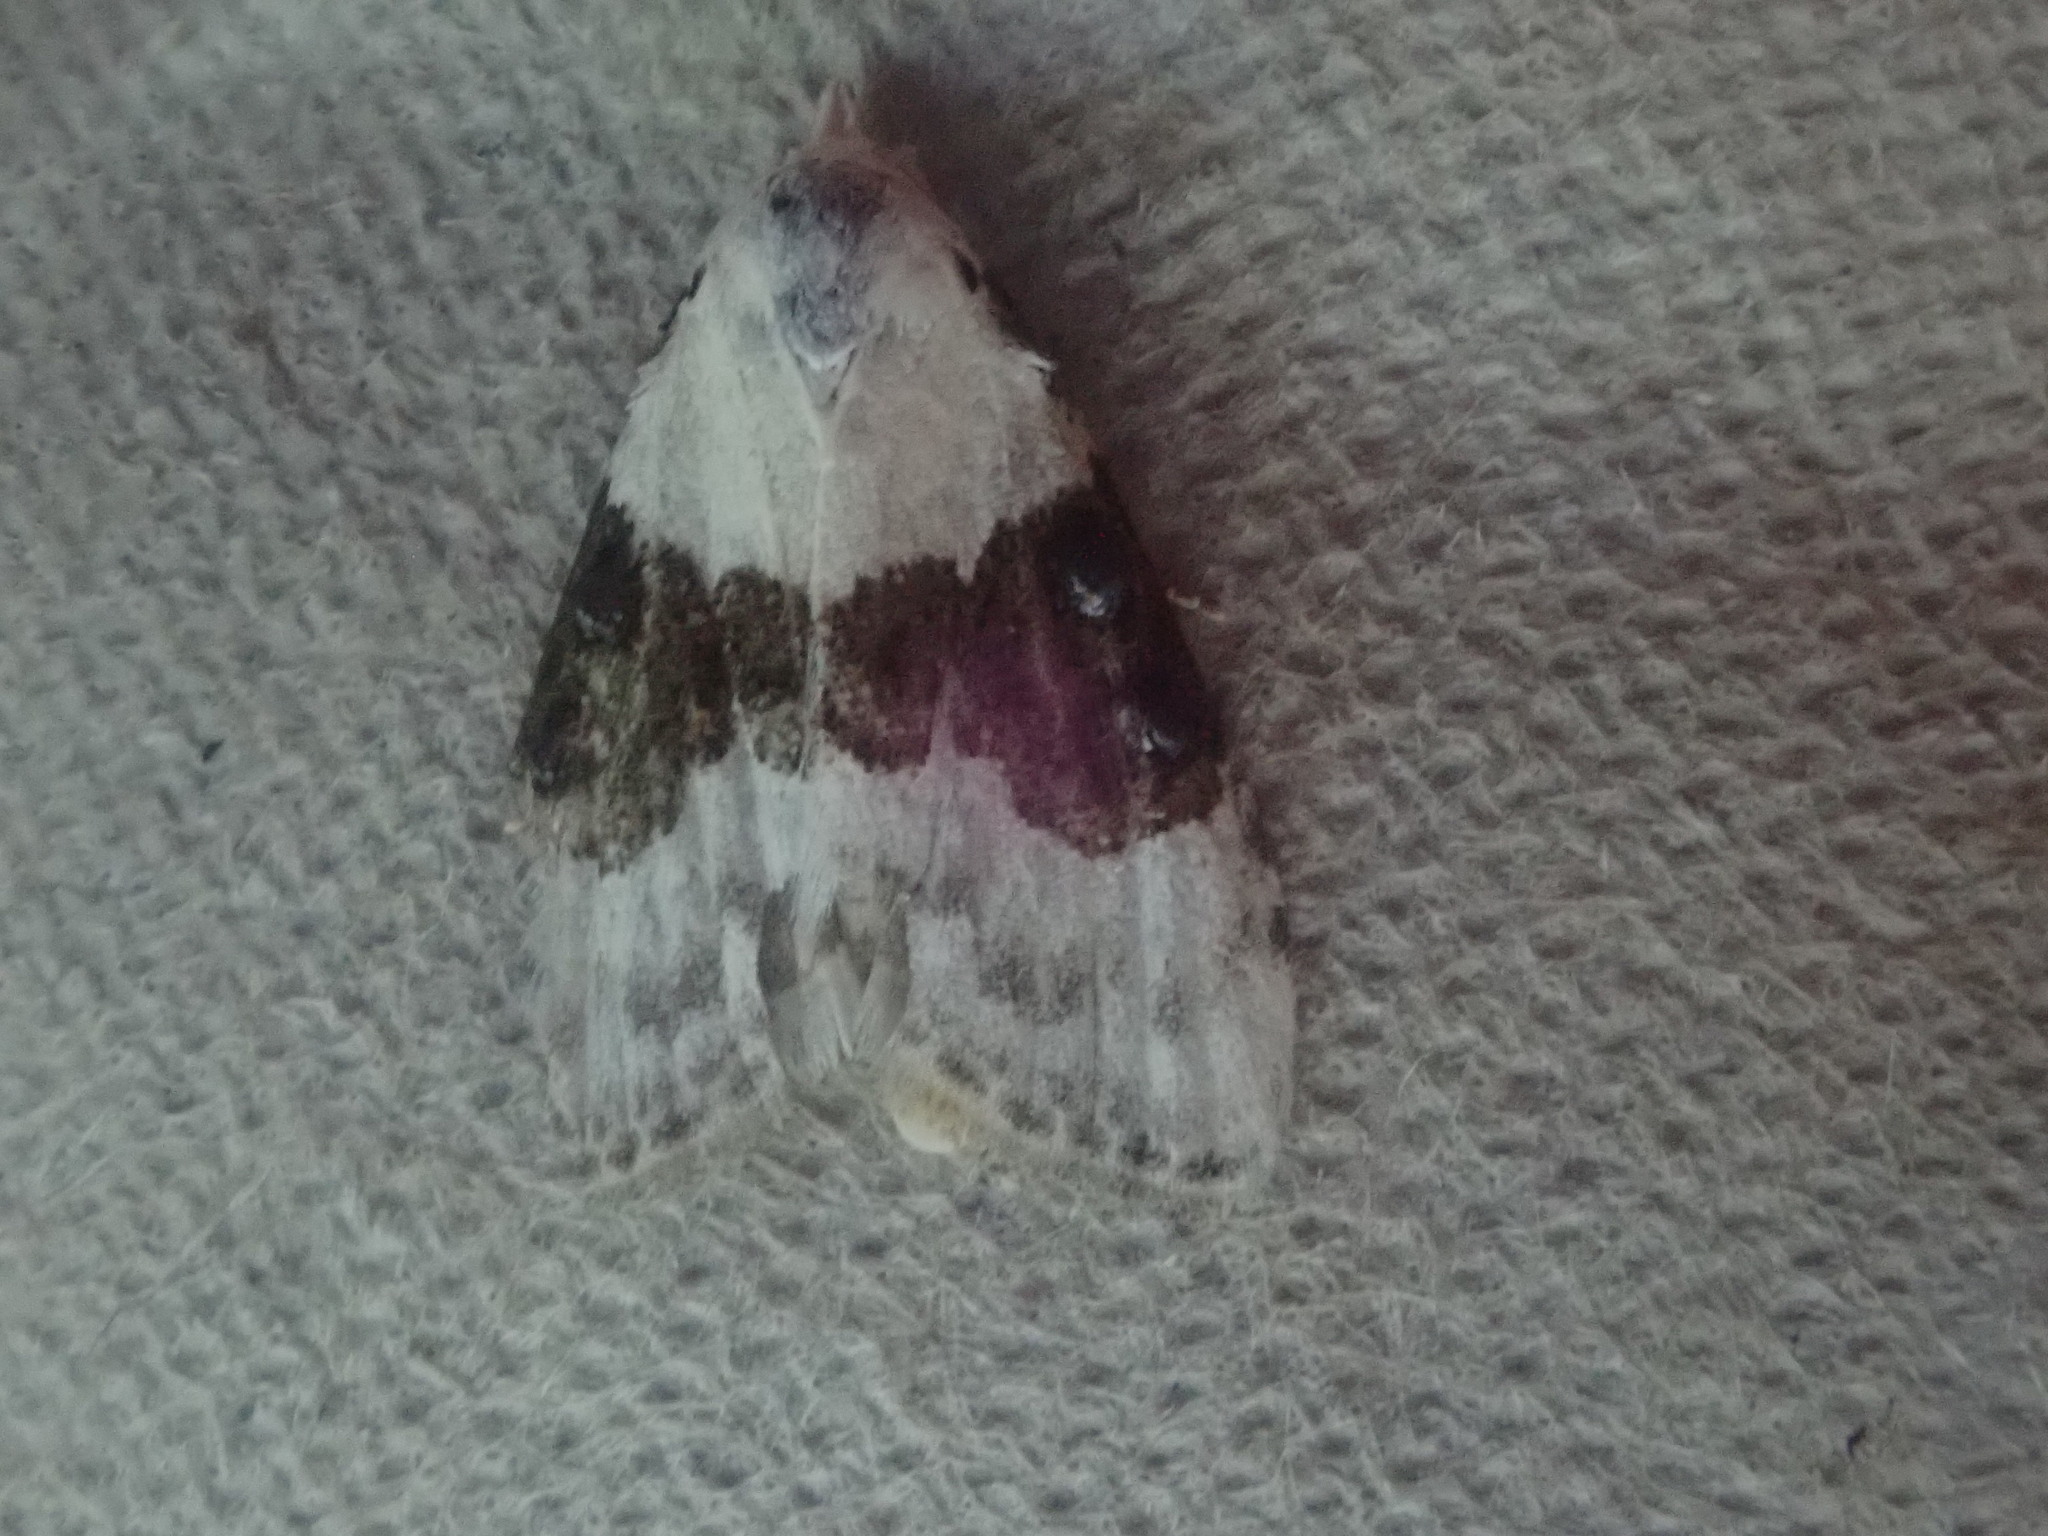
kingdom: Animalia
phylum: Arthropoda
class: Insecta
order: Lepidoptera
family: Nolidae
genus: Nola
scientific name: Nola pustulata
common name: Sharp-blotched nola moth
